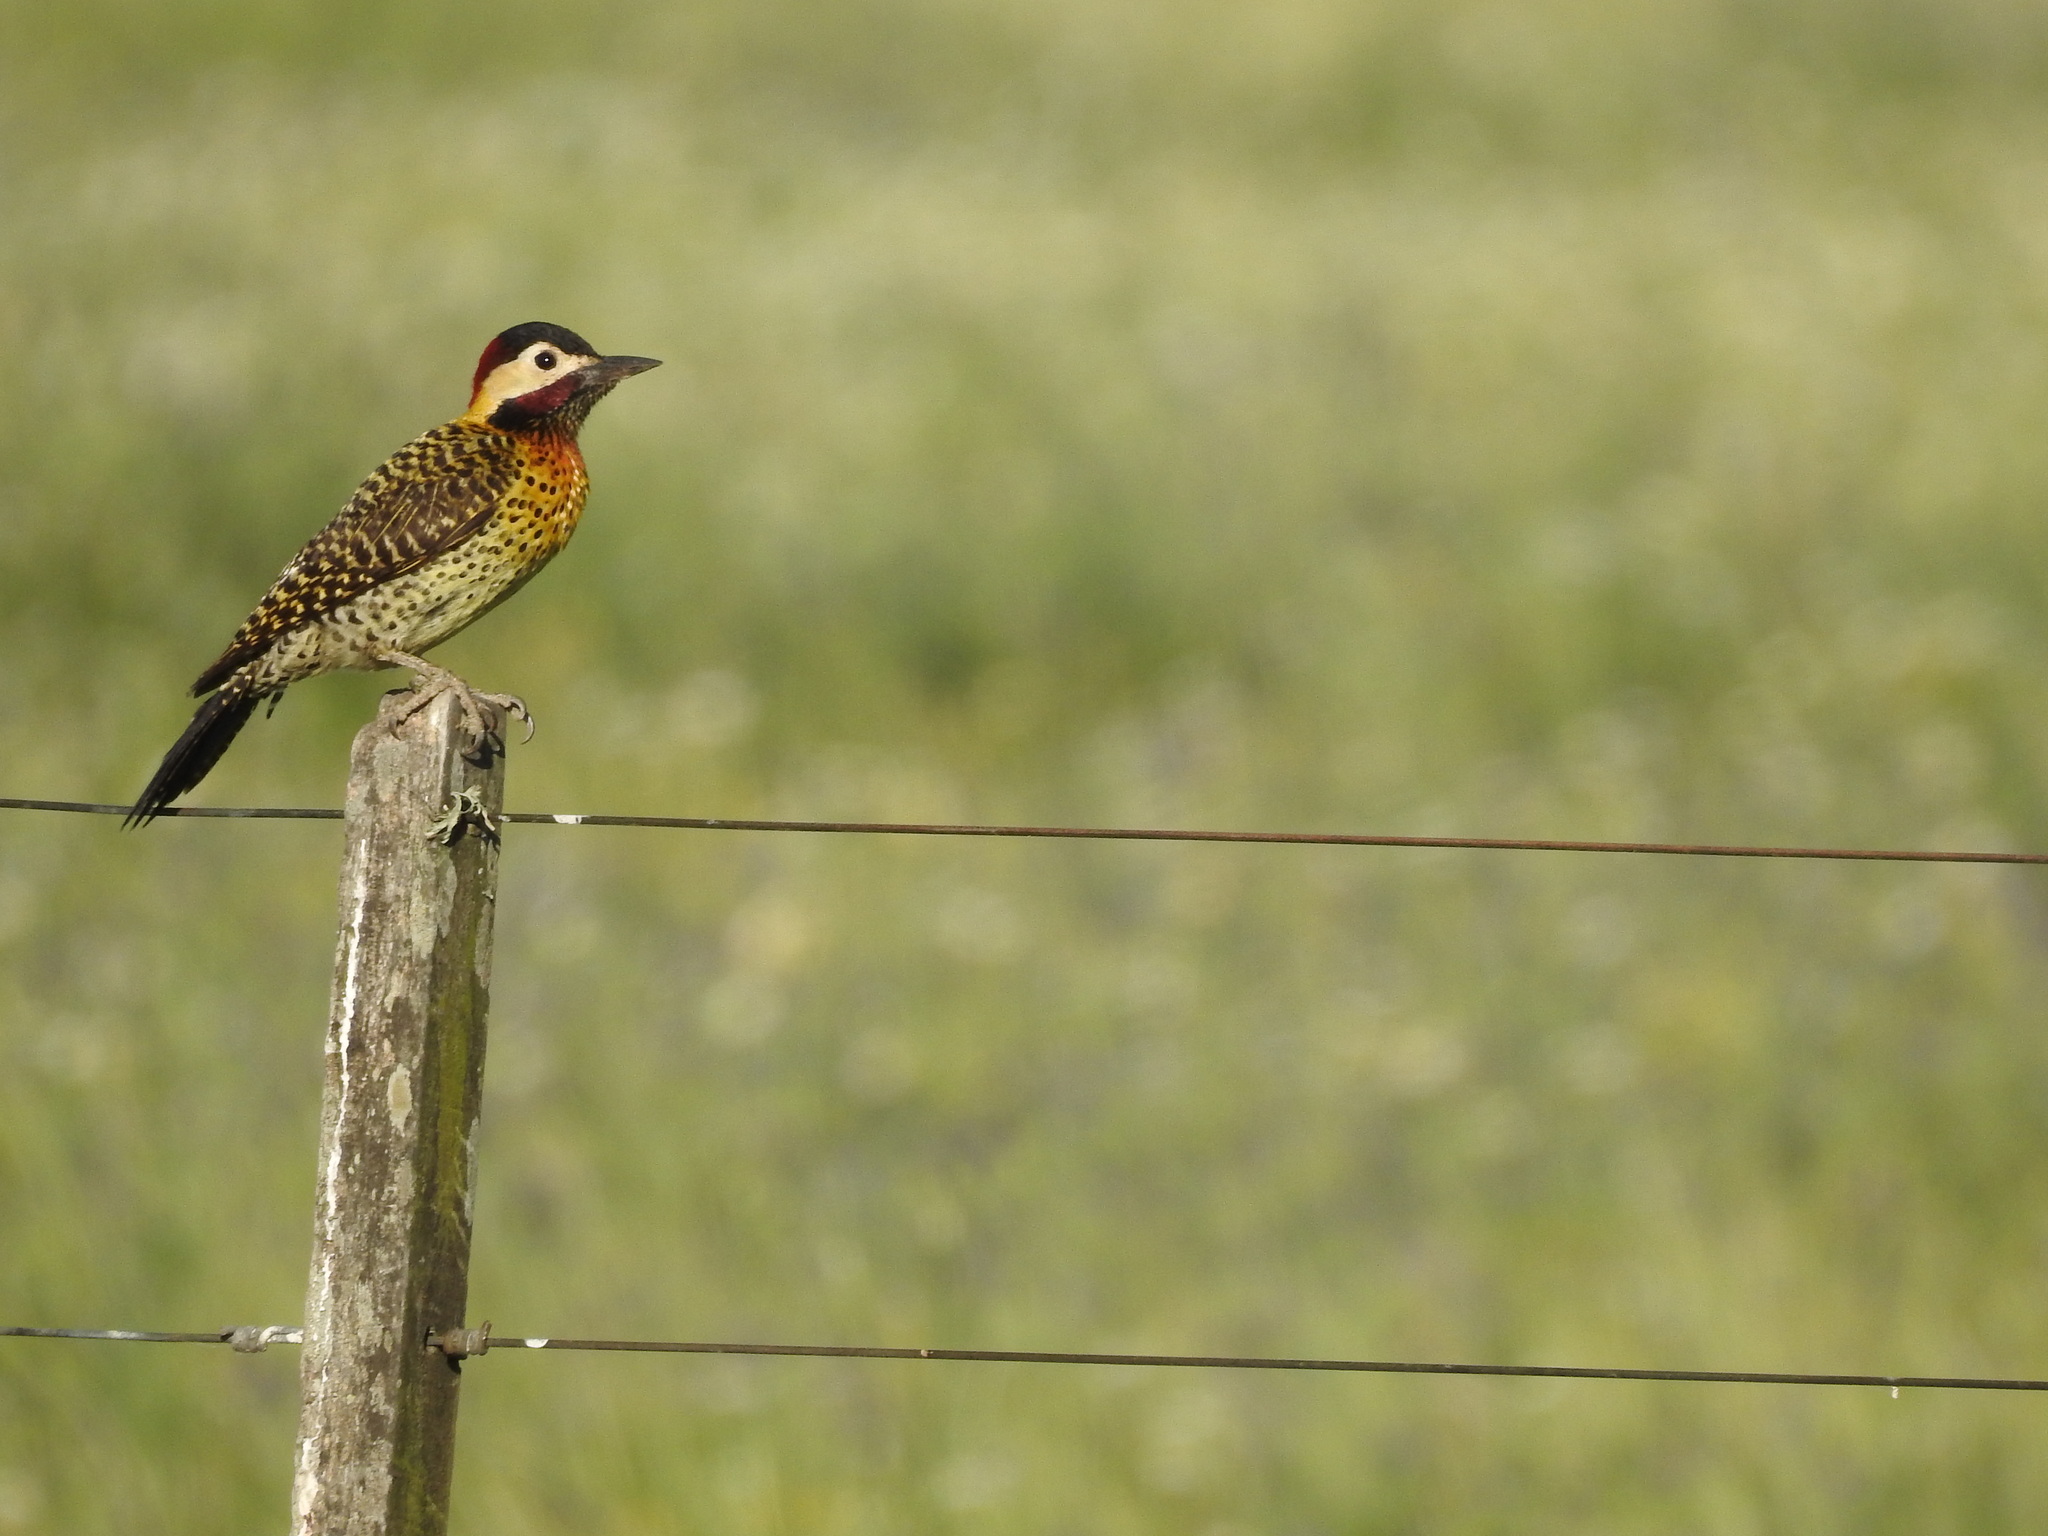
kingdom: Animalia
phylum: Chordata
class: Aves
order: Piciformes
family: Picidae
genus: Colaptes
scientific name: Colaptes melanochloros
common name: Green-barred woodpecker
